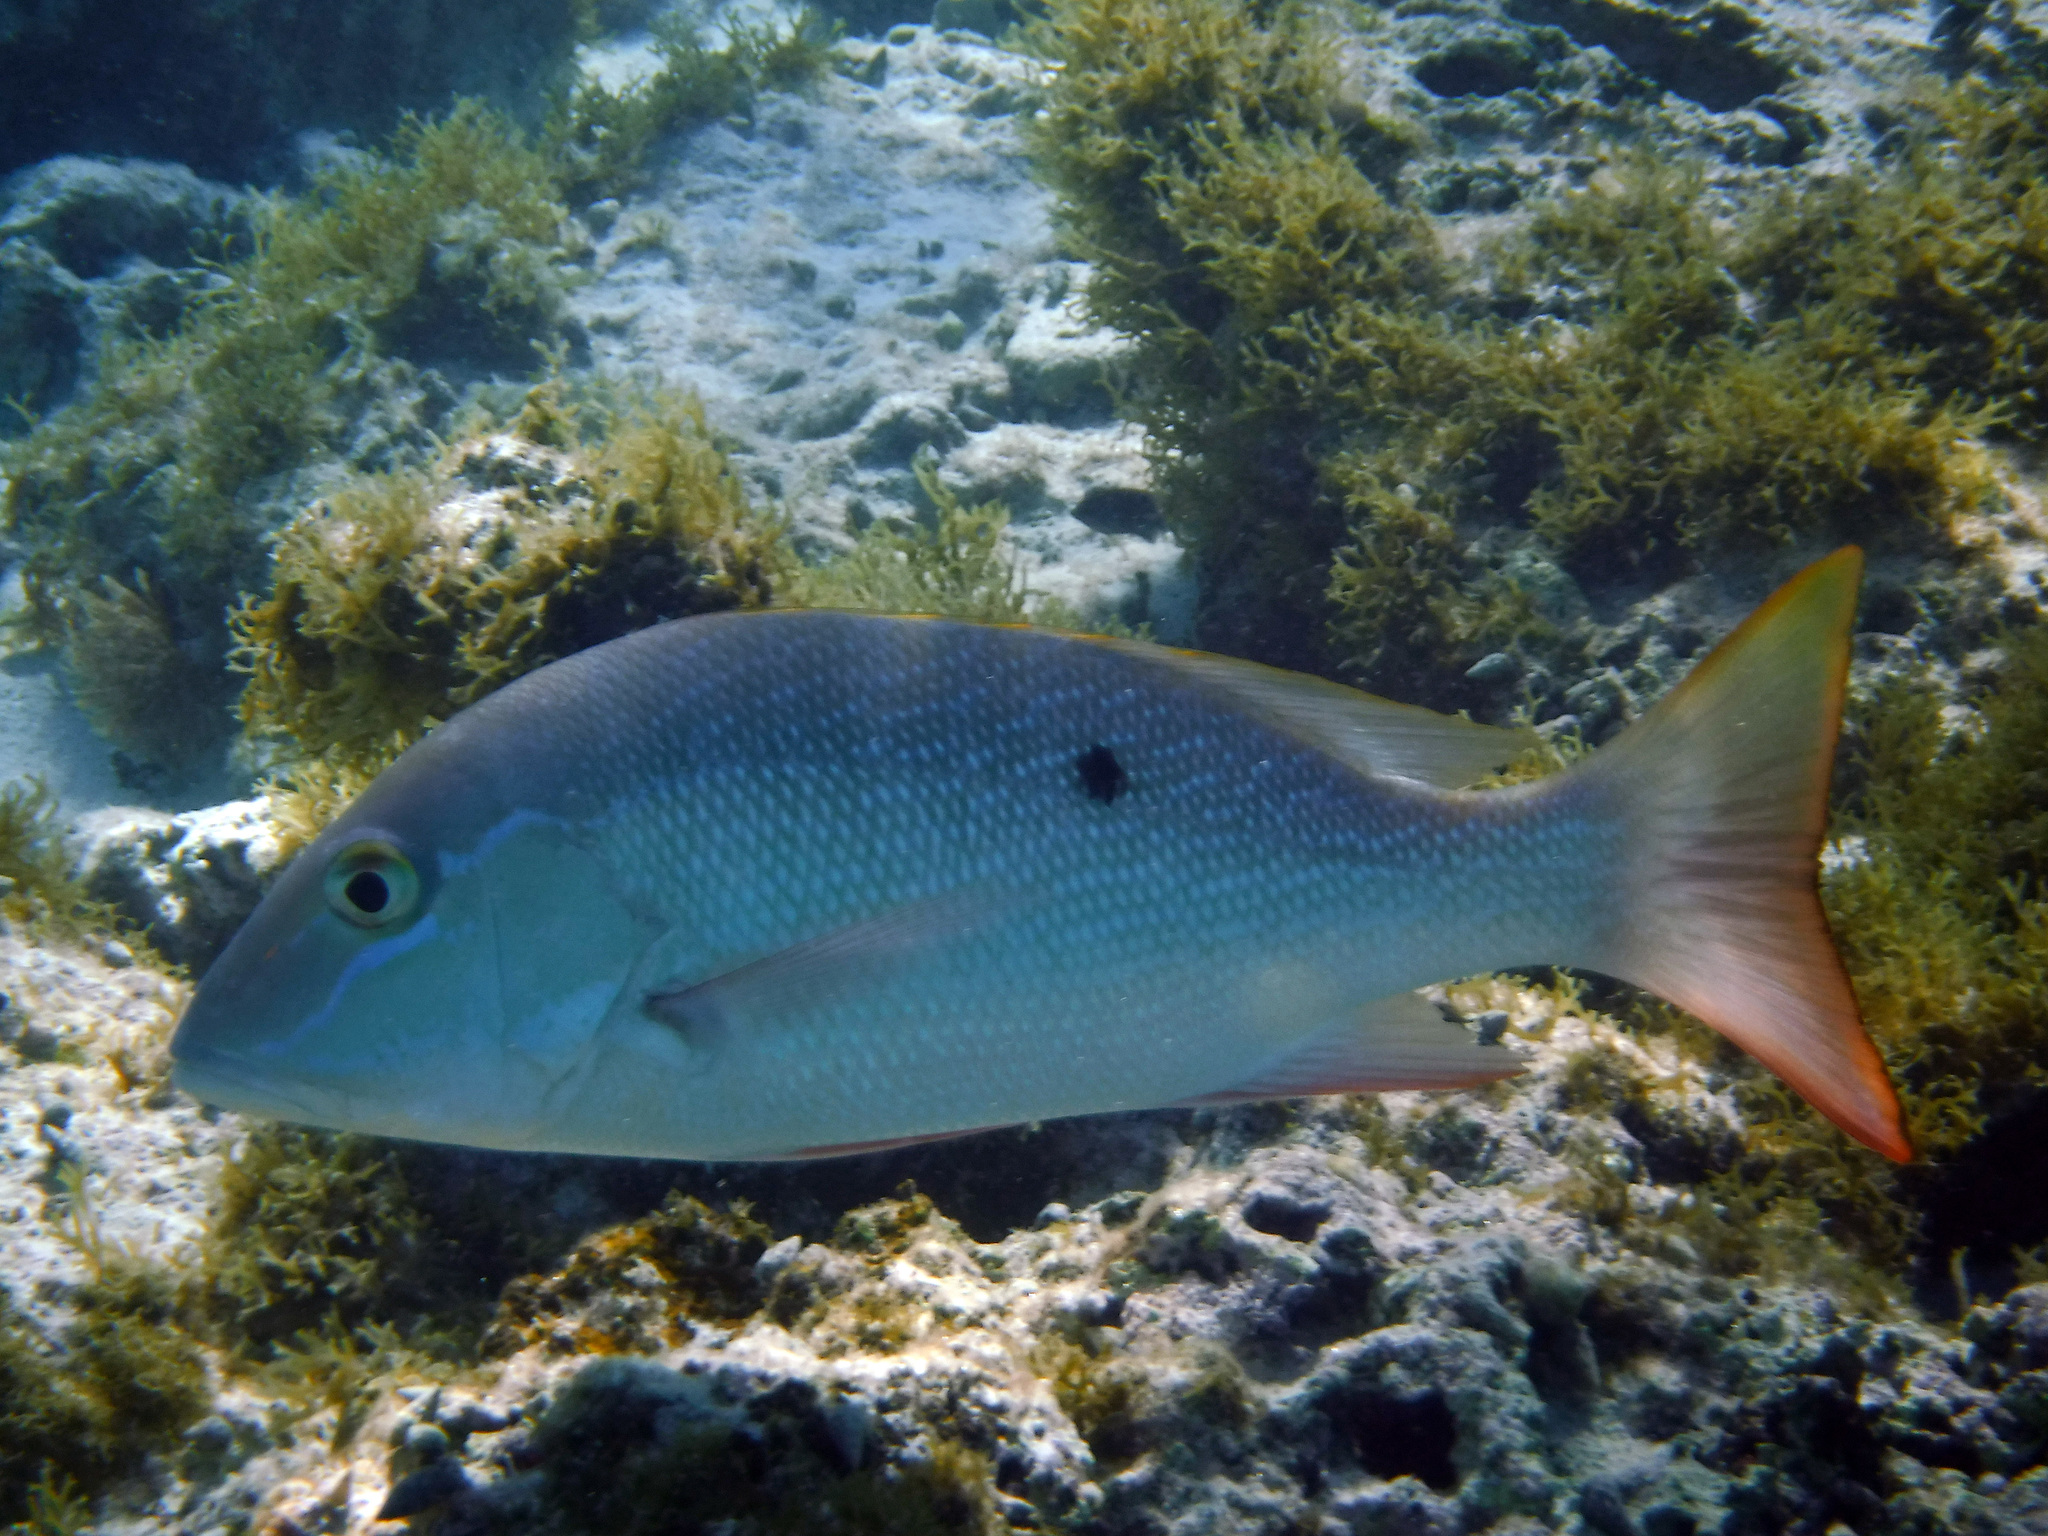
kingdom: Animalia
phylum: Chordata
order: Perciformes
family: Lutjanidae
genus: Lutjanus
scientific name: Lutjanus analis
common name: Mutton snapper
